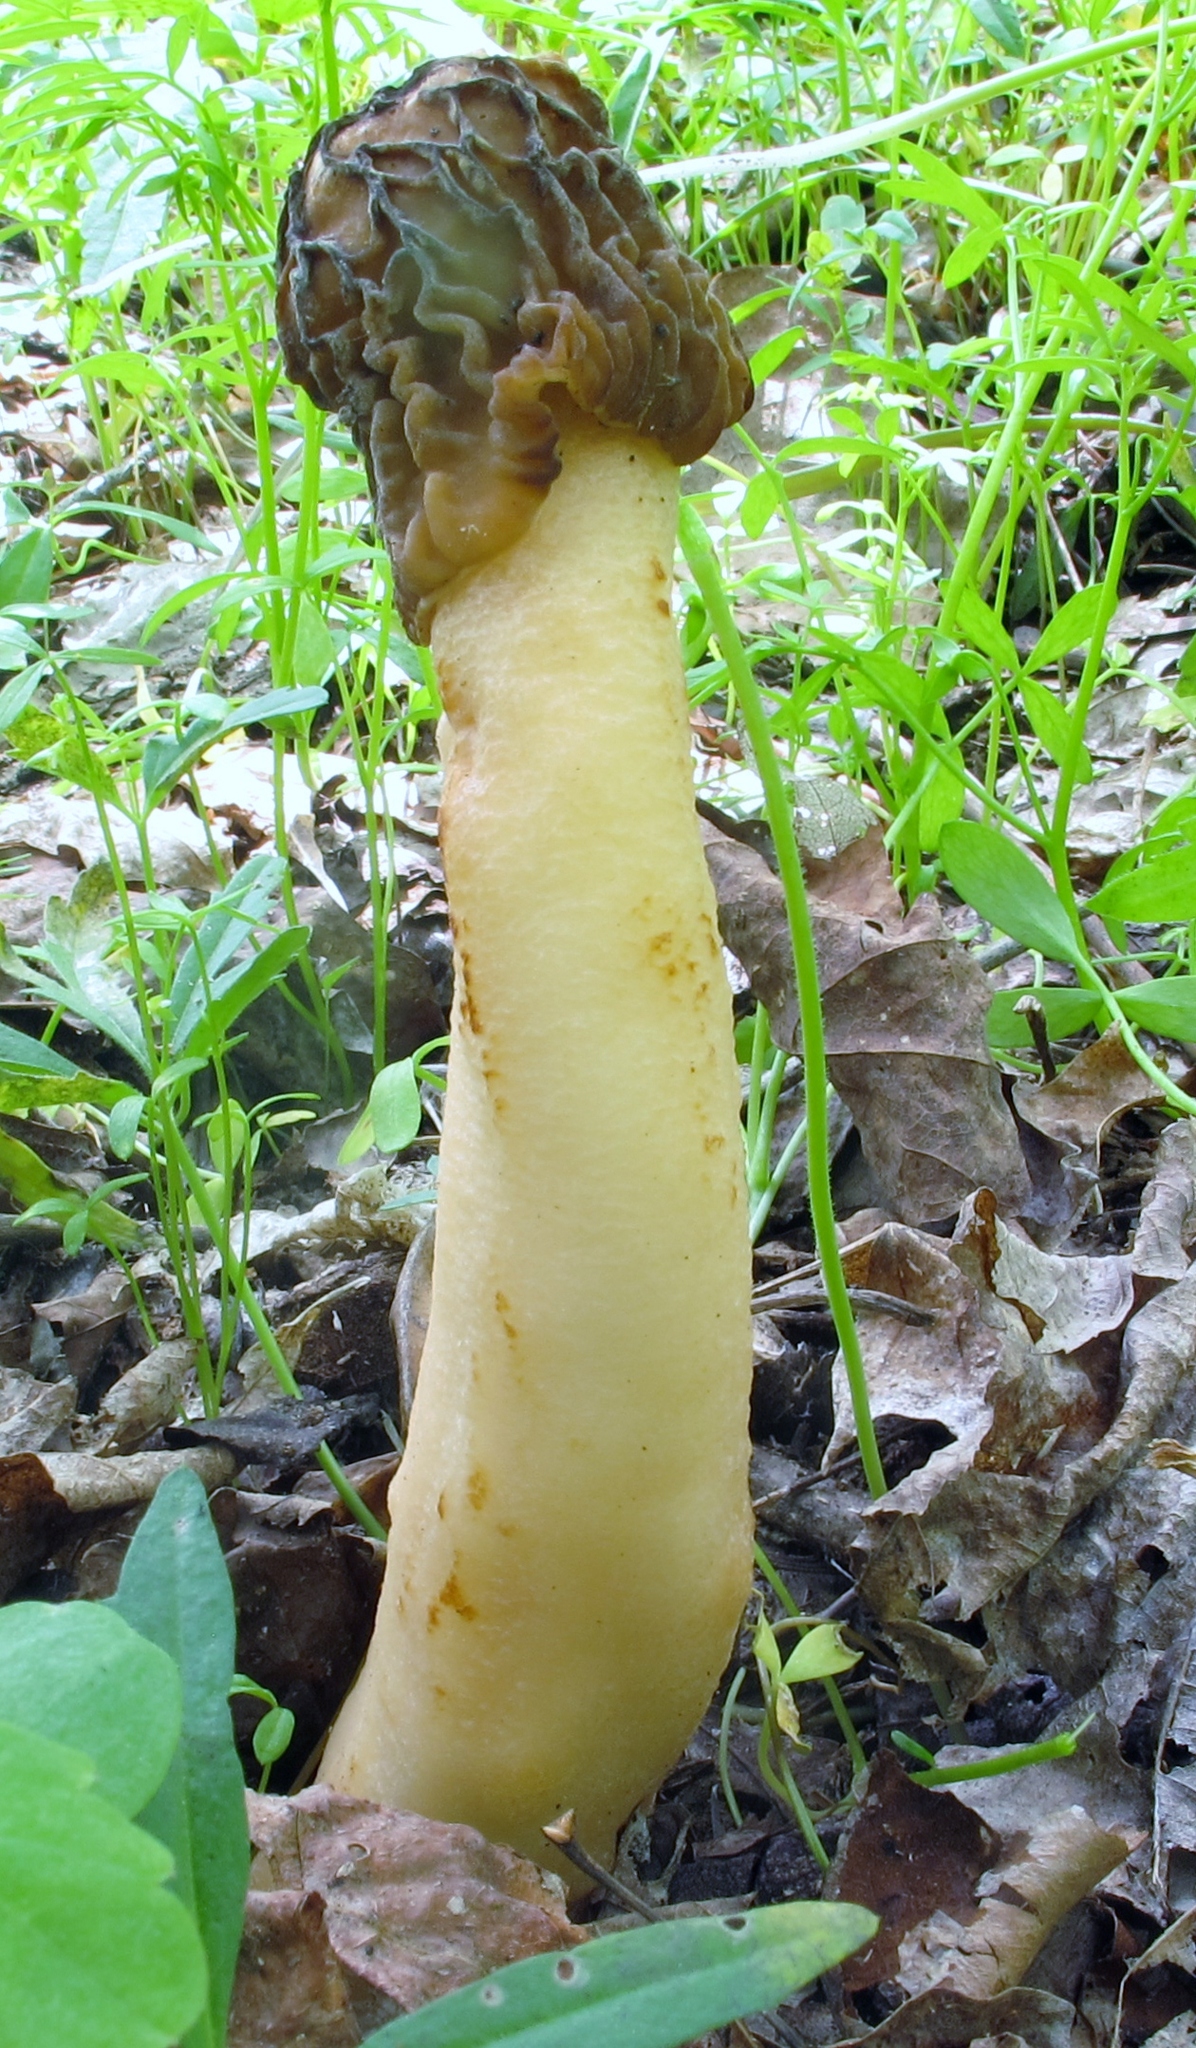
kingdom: Fungi
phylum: Ascomycota
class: Pezizomycetes
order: Pezizales
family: Morchellaceae
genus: Verpa
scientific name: Verpa bohemica
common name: Wrinkled thimble morel
